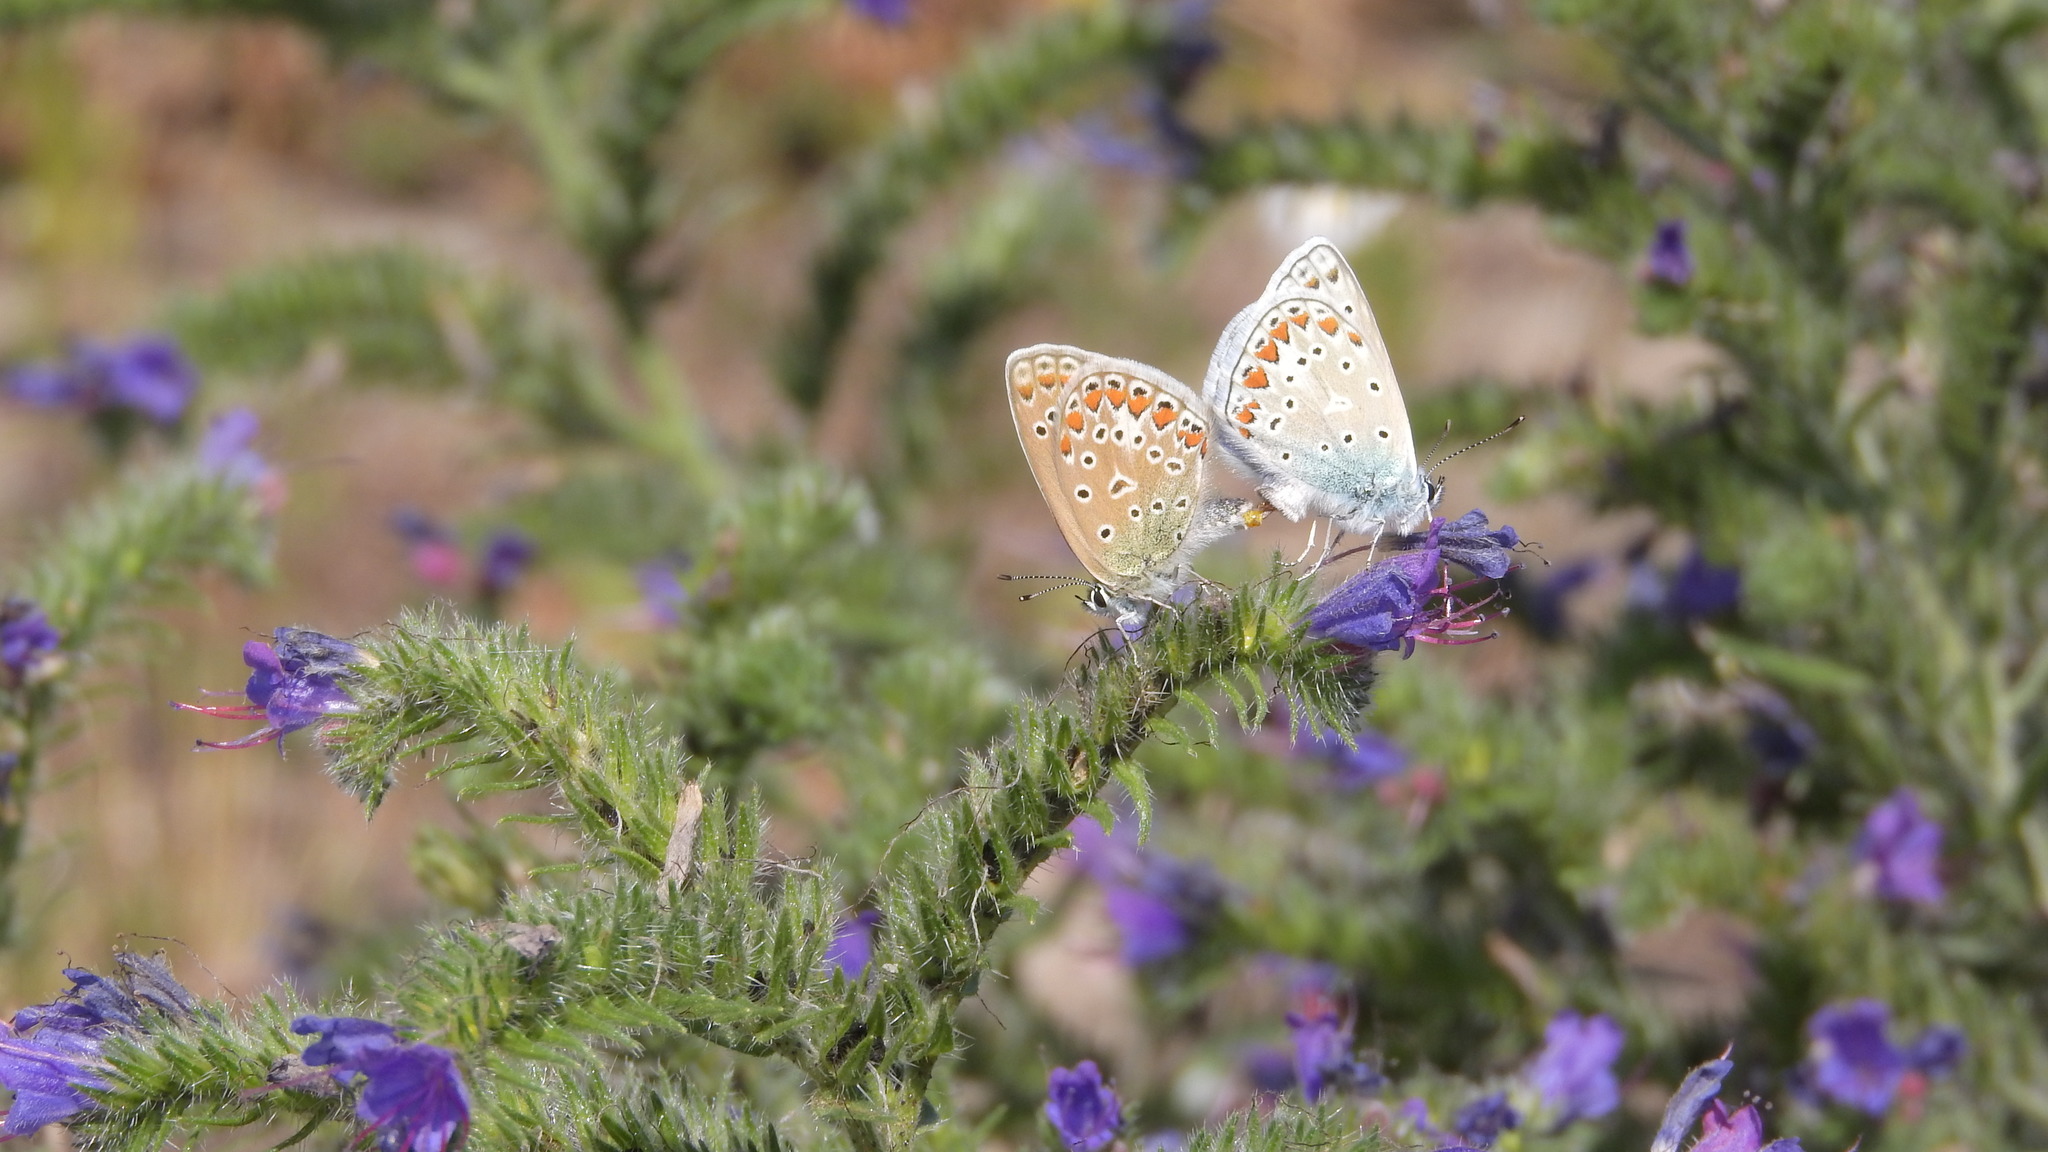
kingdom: Animalia
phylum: Arthropoda
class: Insecta
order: Lepidoptera
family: Lycaenidae
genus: Polyommatus
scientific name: Polyommatus icarus
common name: Common blue
